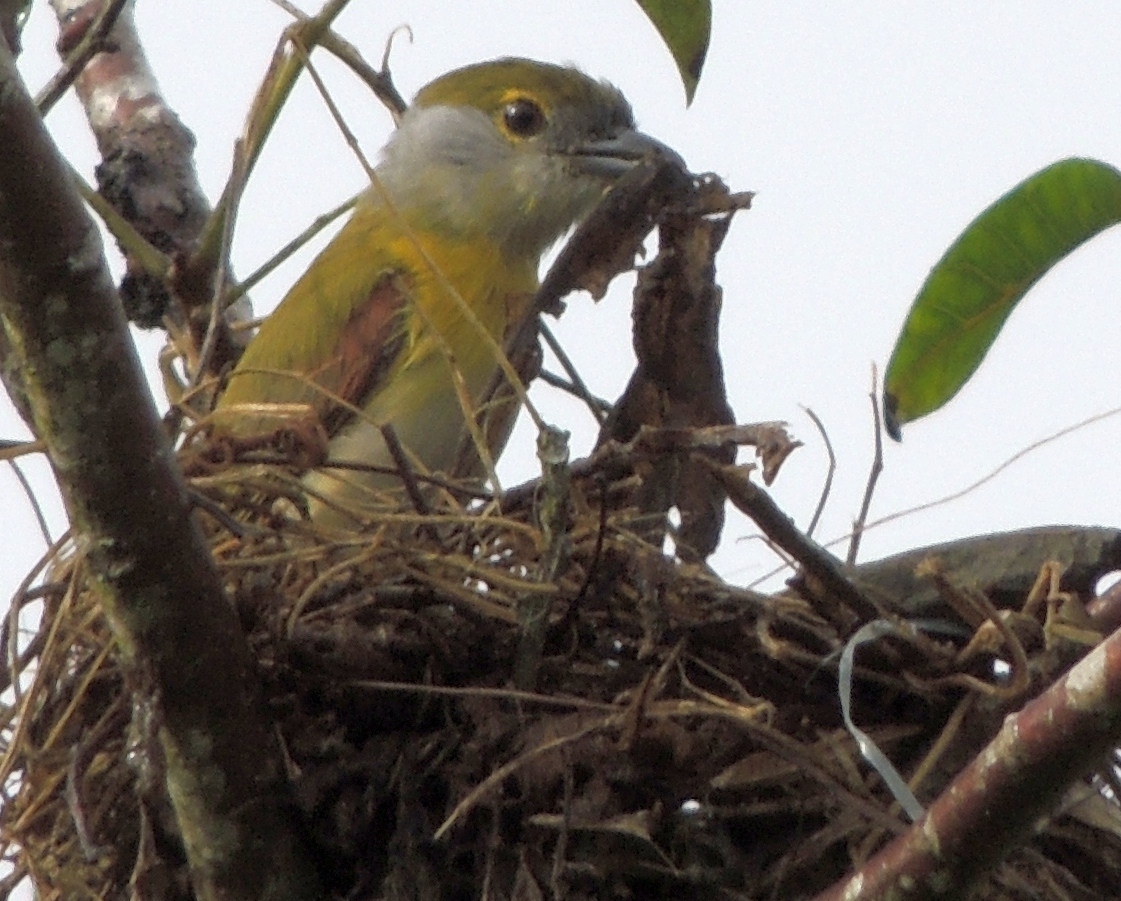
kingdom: Animalia
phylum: Chordata
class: Aves
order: Passeriformes
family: Cotingidae
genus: Pachyramphus
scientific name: Pachyramphus viridis
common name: Green-backed becard
